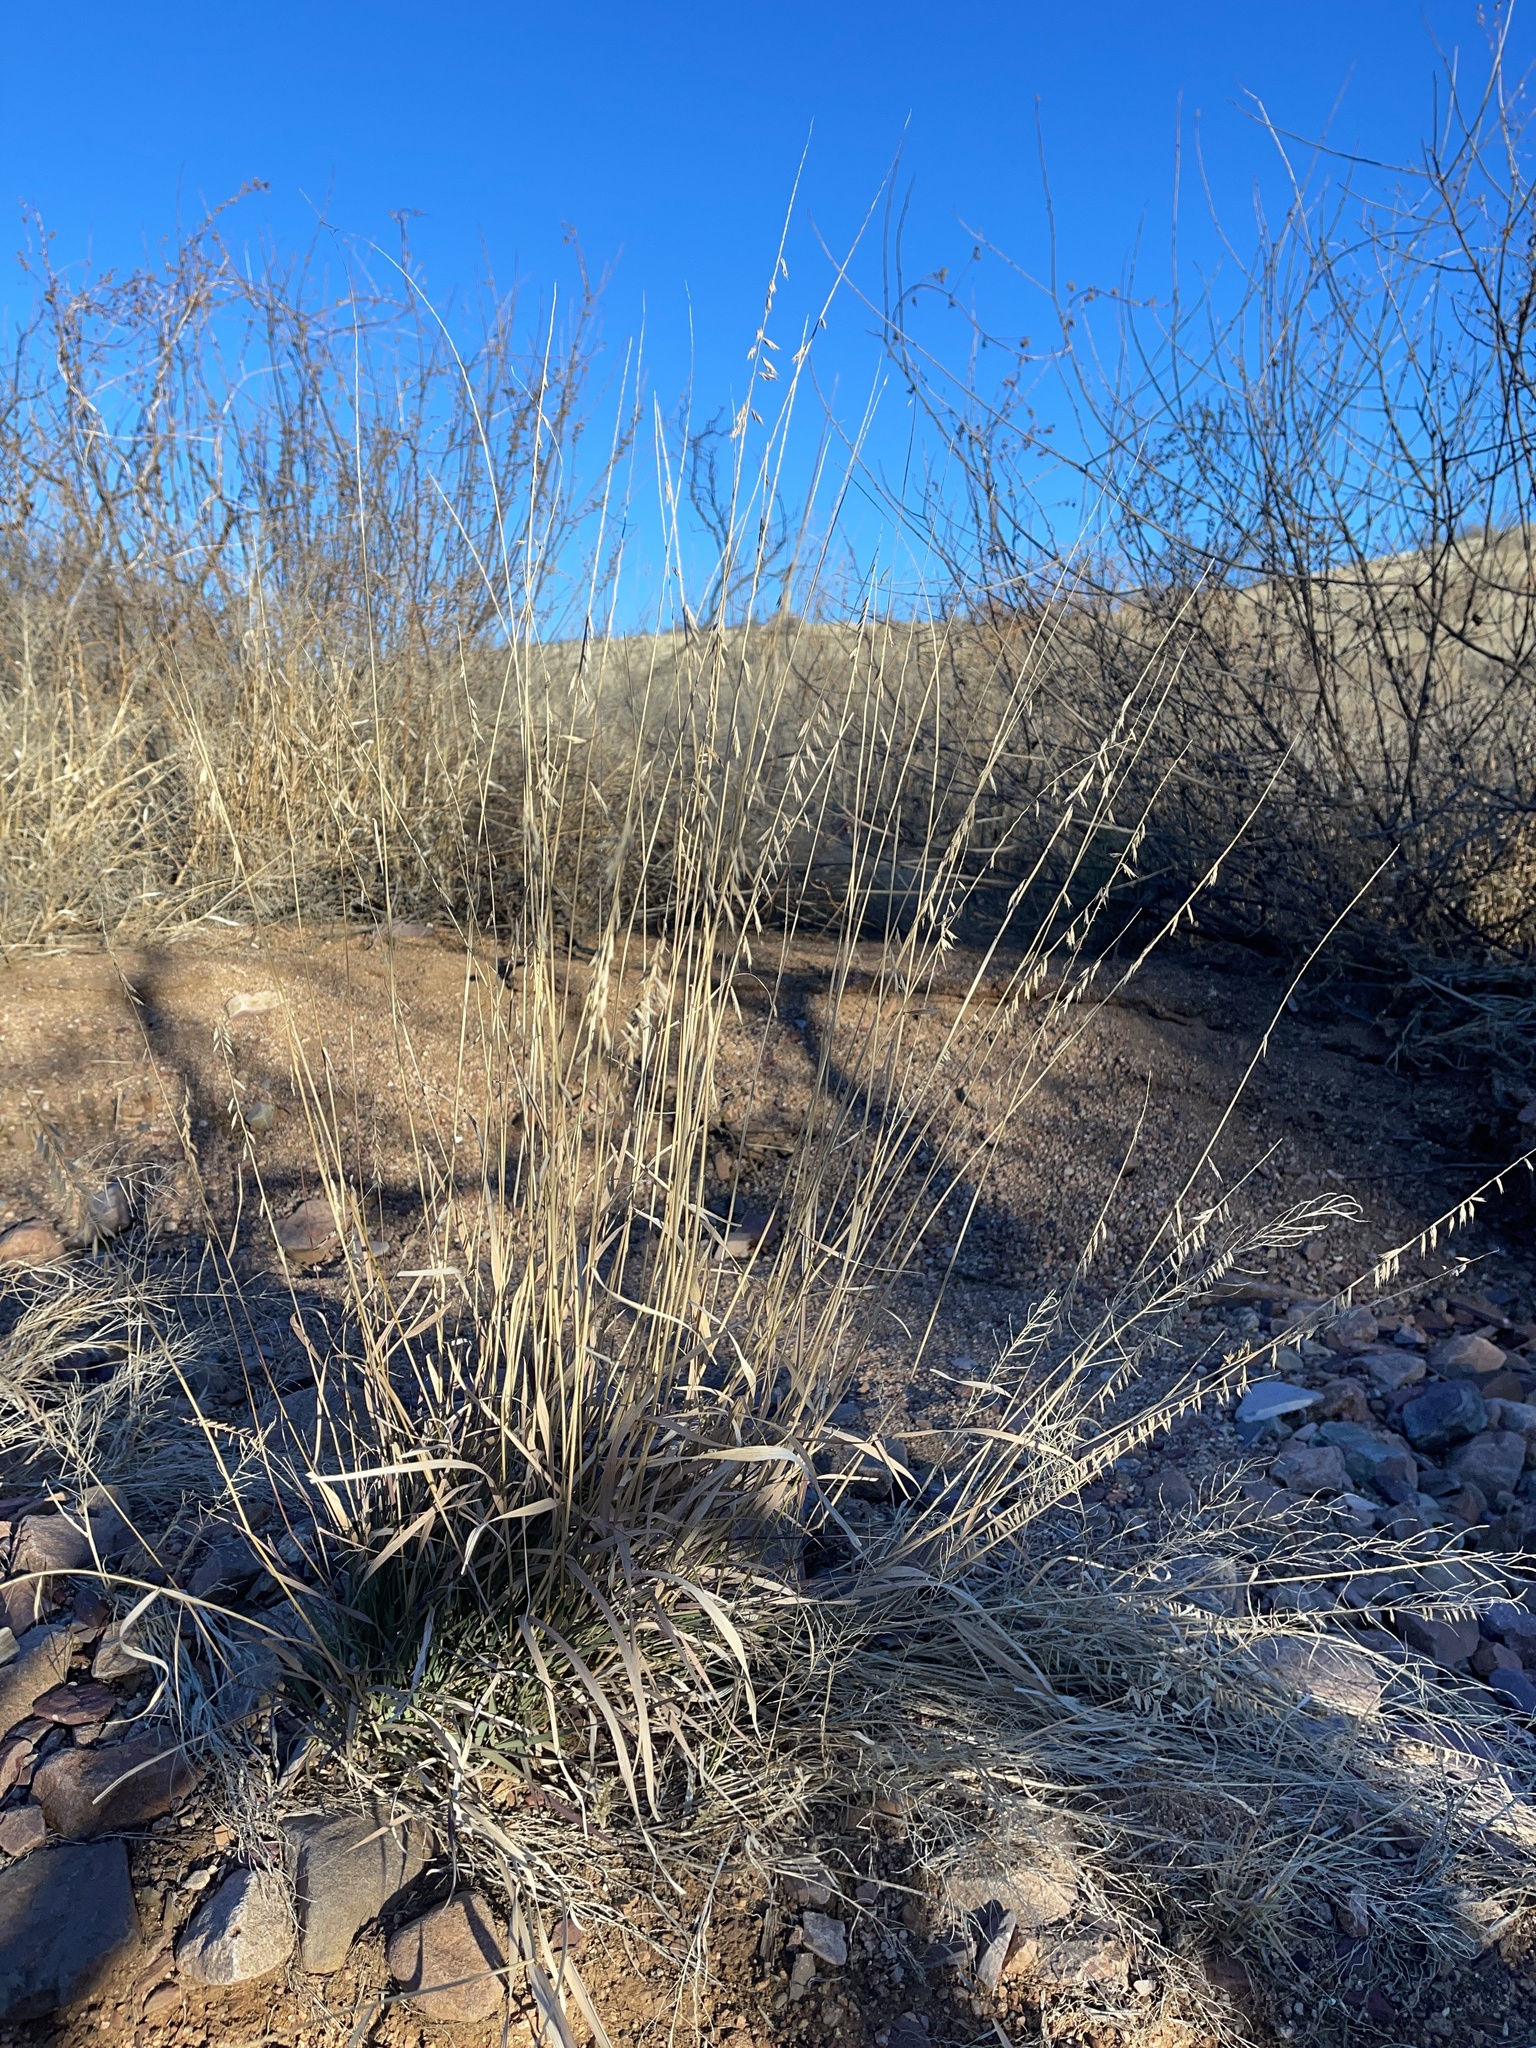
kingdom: Plantae
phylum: Tracheophyta
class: Liliopsida
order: Poales
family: Poaceae
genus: Bouteloua
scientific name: Bouteloua curtipendula
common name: Side-oats grama
